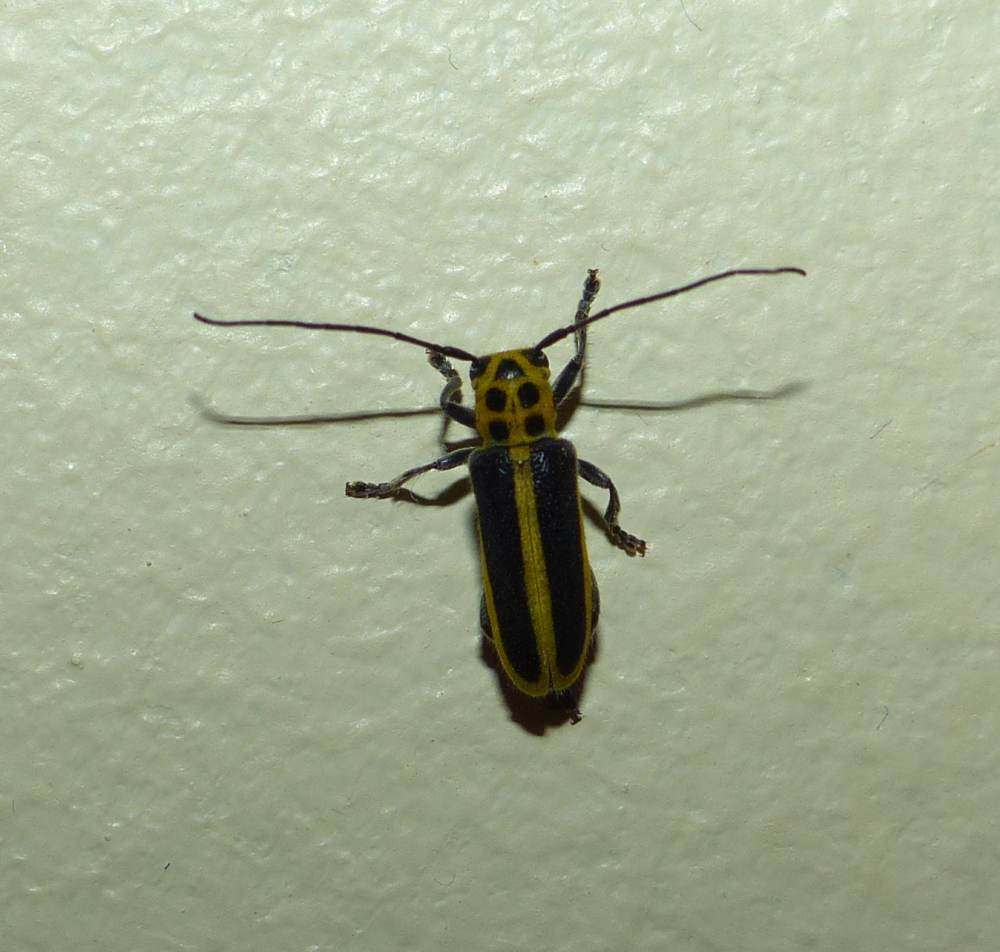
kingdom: Animalia
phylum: Arthropoda
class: Insecta
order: Coleoptera
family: Cerambycidae
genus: Saperda
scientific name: Saperda puncticollis
